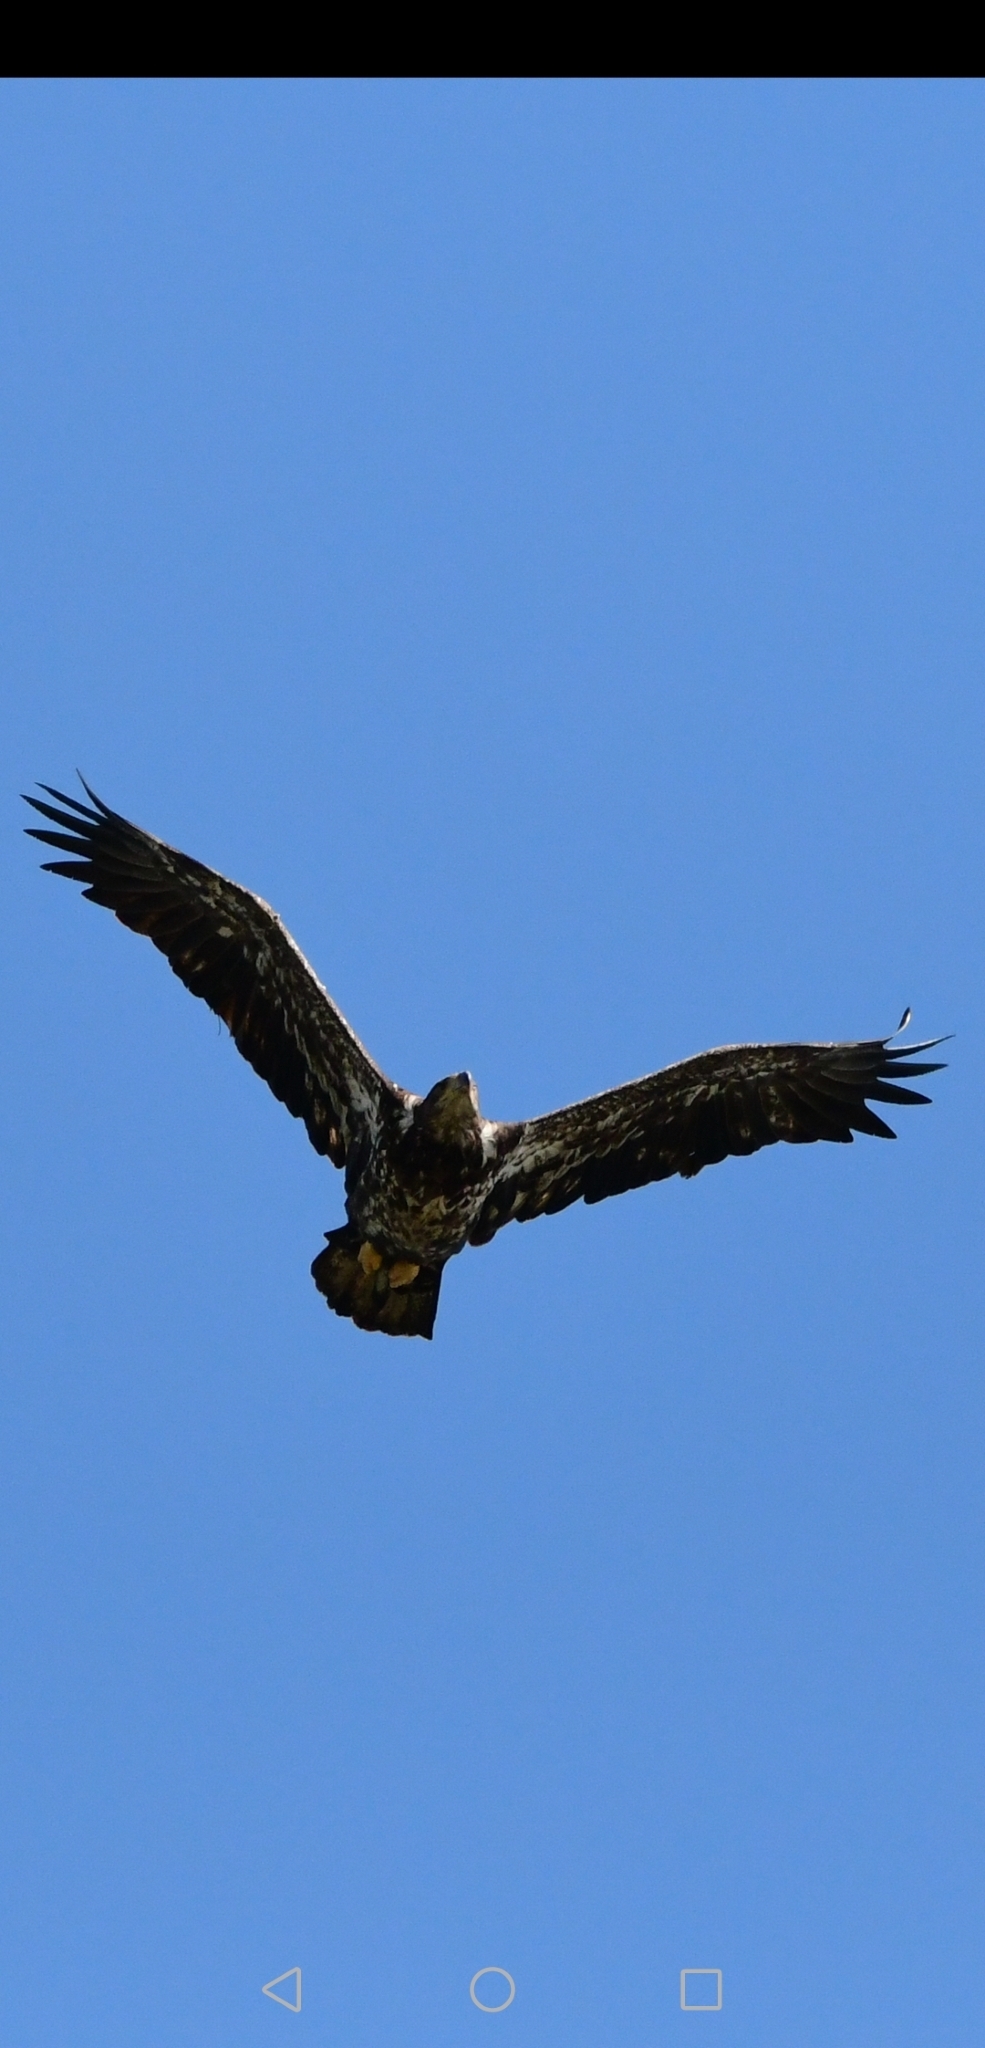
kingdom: Animalia
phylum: Chordata
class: Aves
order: Accipitriformes
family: Accipitridae
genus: Haliaeetus
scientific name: Haliaeetus leucocephalus
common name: Bald eagle
